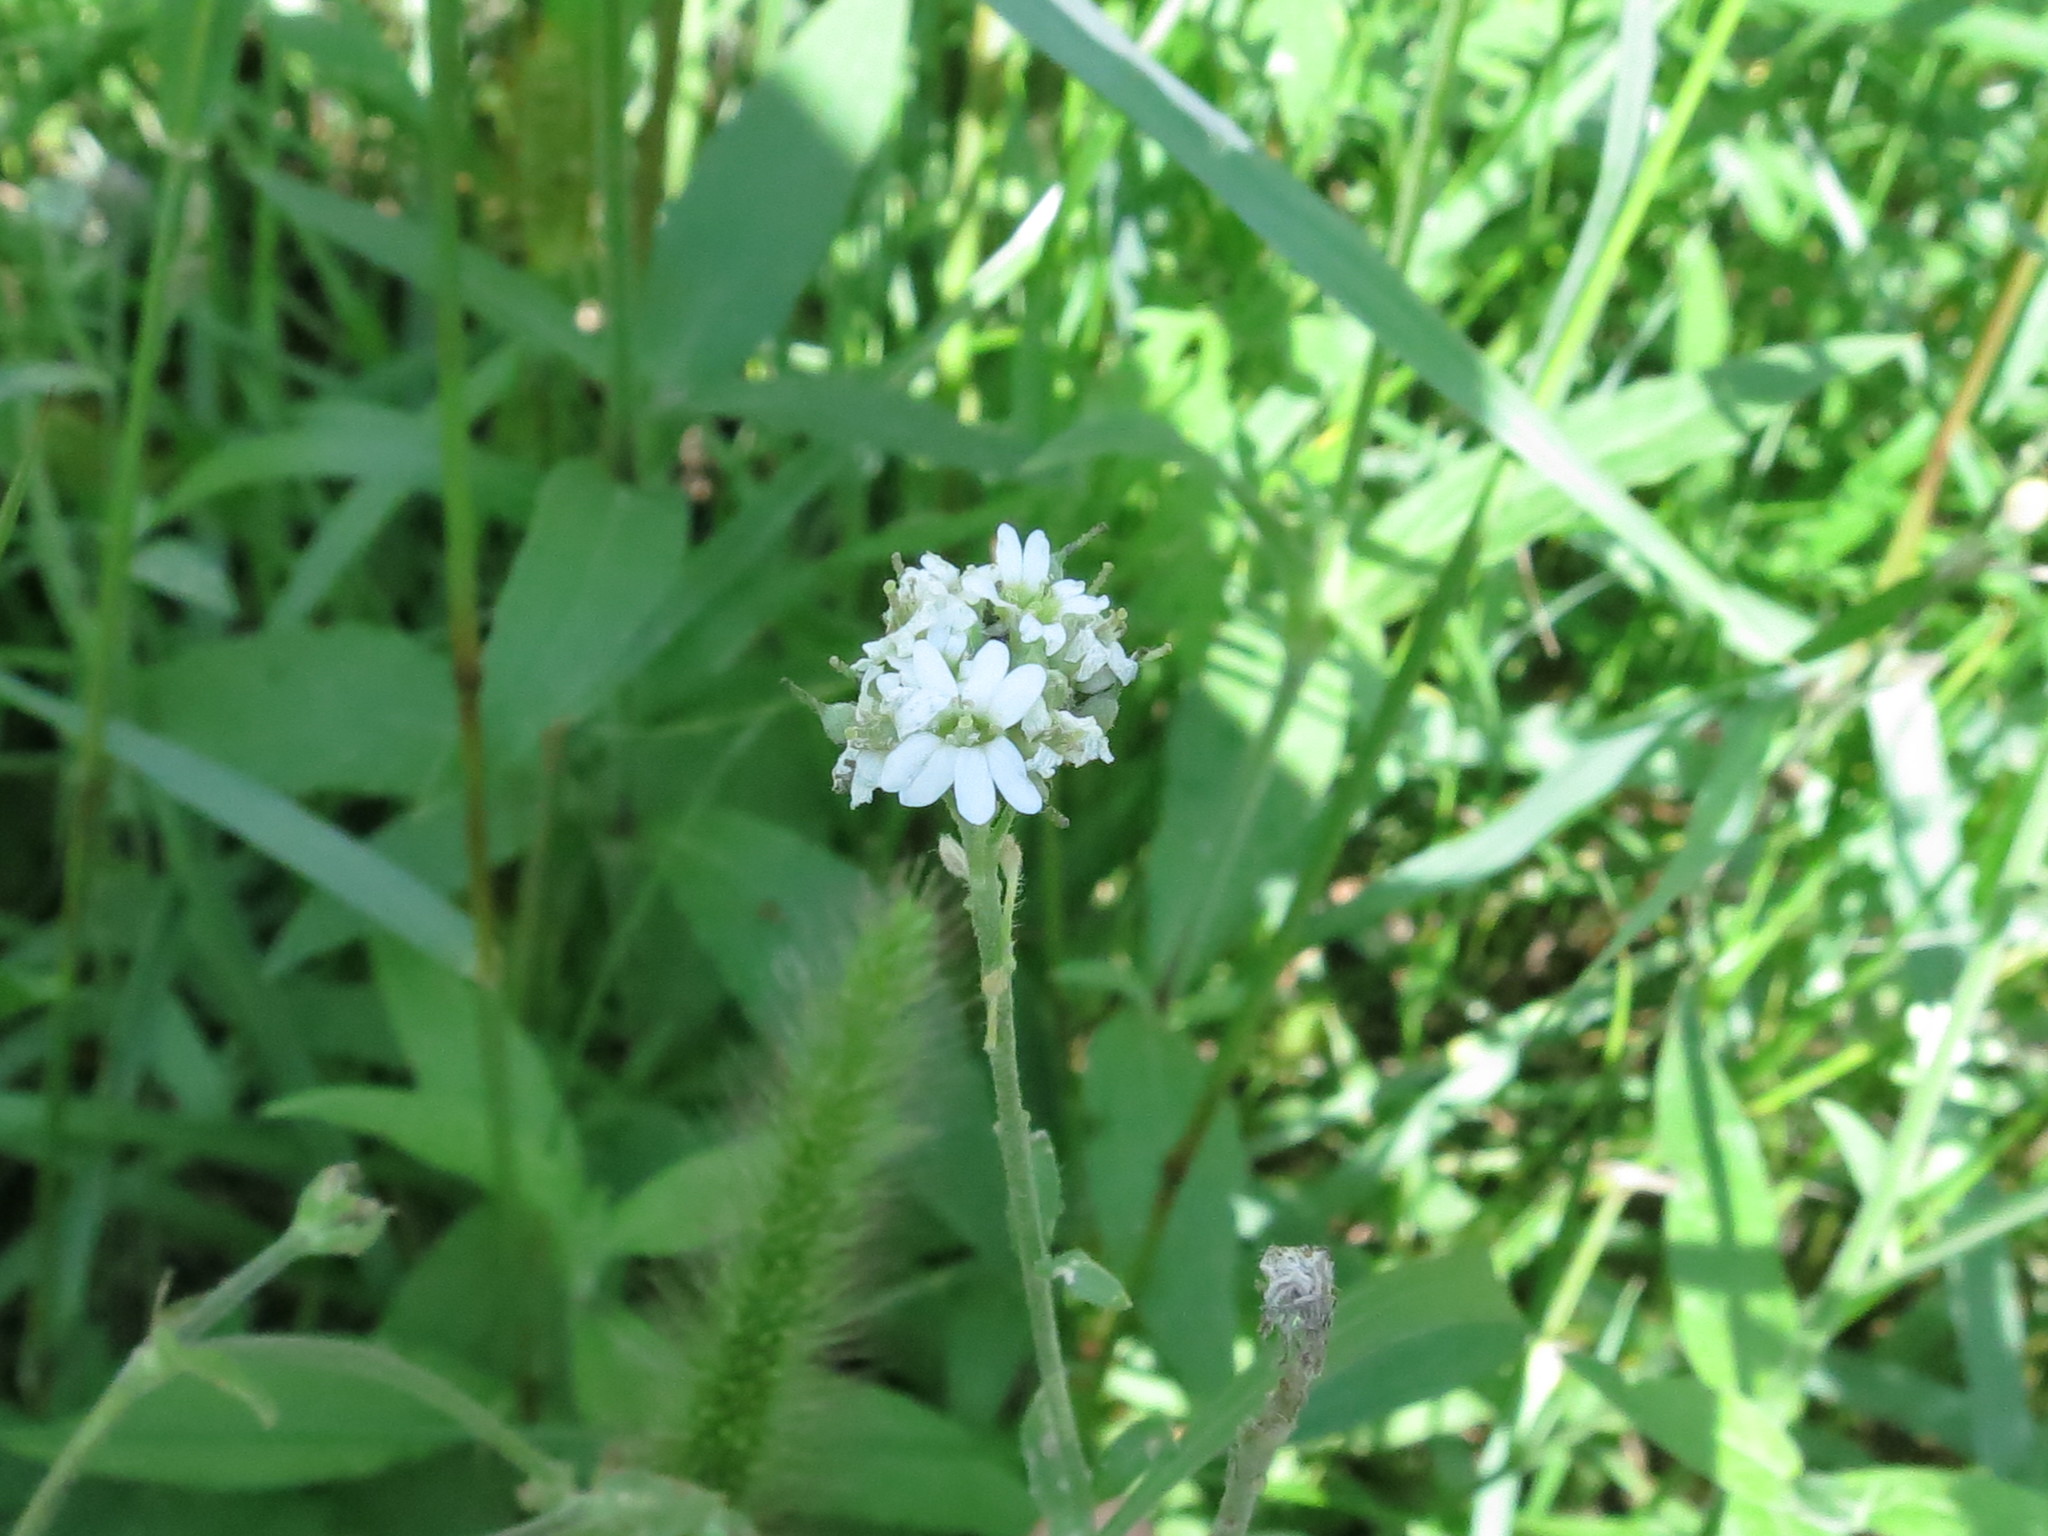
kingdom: Plantae
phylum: Tracheophyta
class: Magnoliopsida
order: Brassicales
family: Brassicaceae
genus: Berteroa
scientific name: Berteroa incana
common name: Hoary alison
